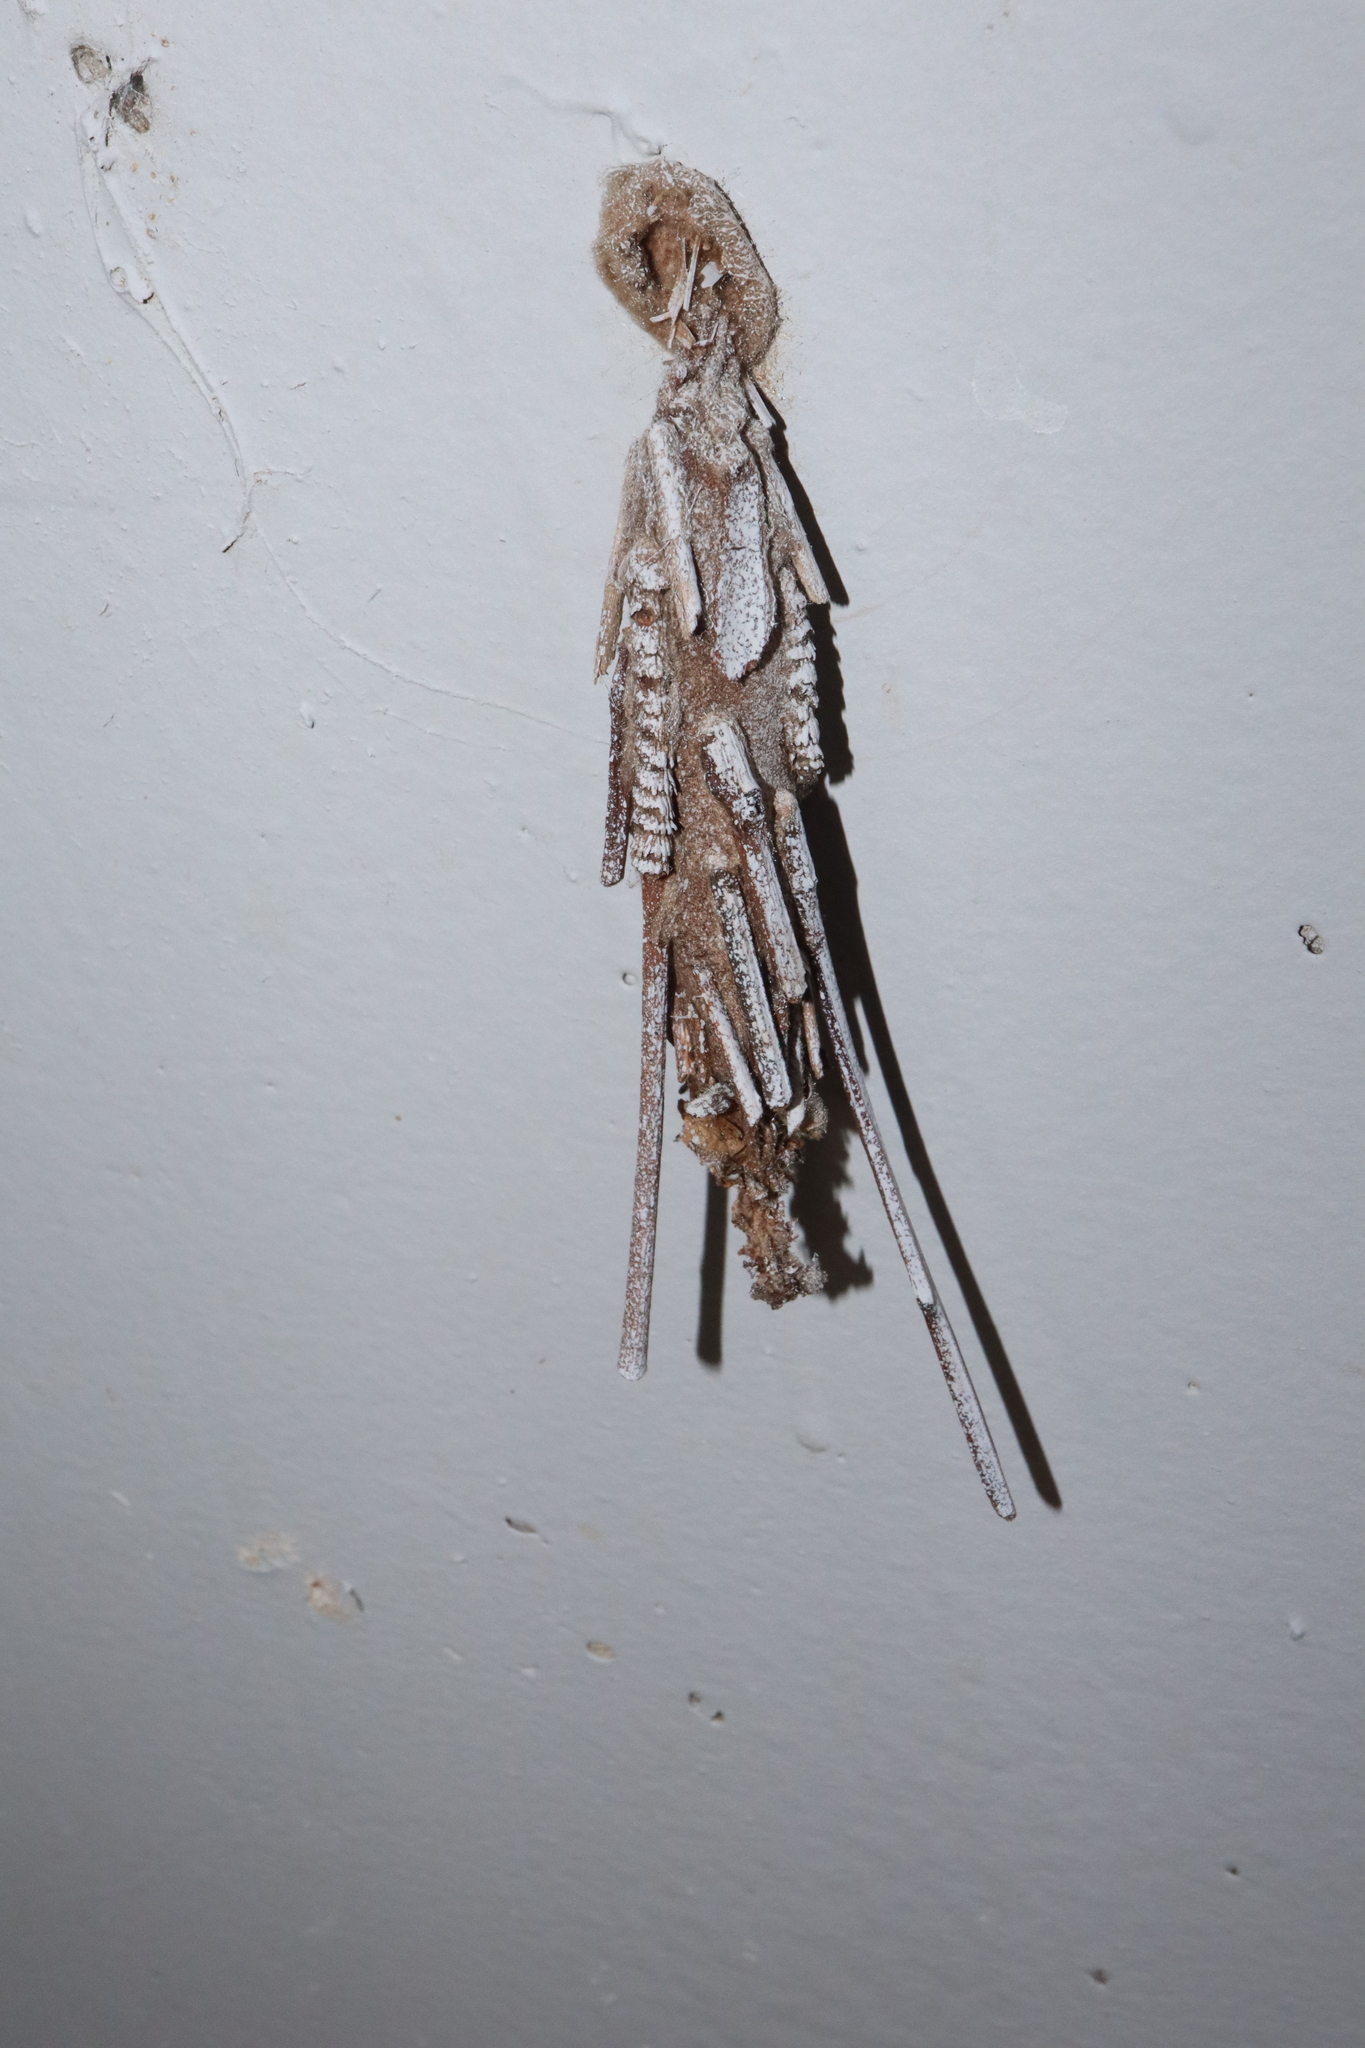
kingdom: Animalia
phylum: Arthropoda
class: Insecta
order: Lepidoptera
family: Psychidae
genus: Metura
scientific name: Metura elongatus
